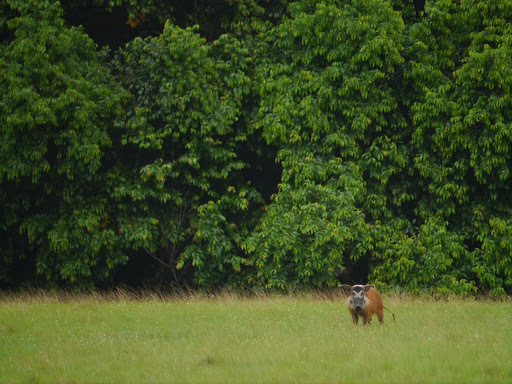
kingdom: Animalia
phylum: Chordata
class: Mammalia
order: Artiodactyla
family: Suidae
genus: Potamochoerus
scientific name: Potamochoerus porcus
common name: Red river hog
